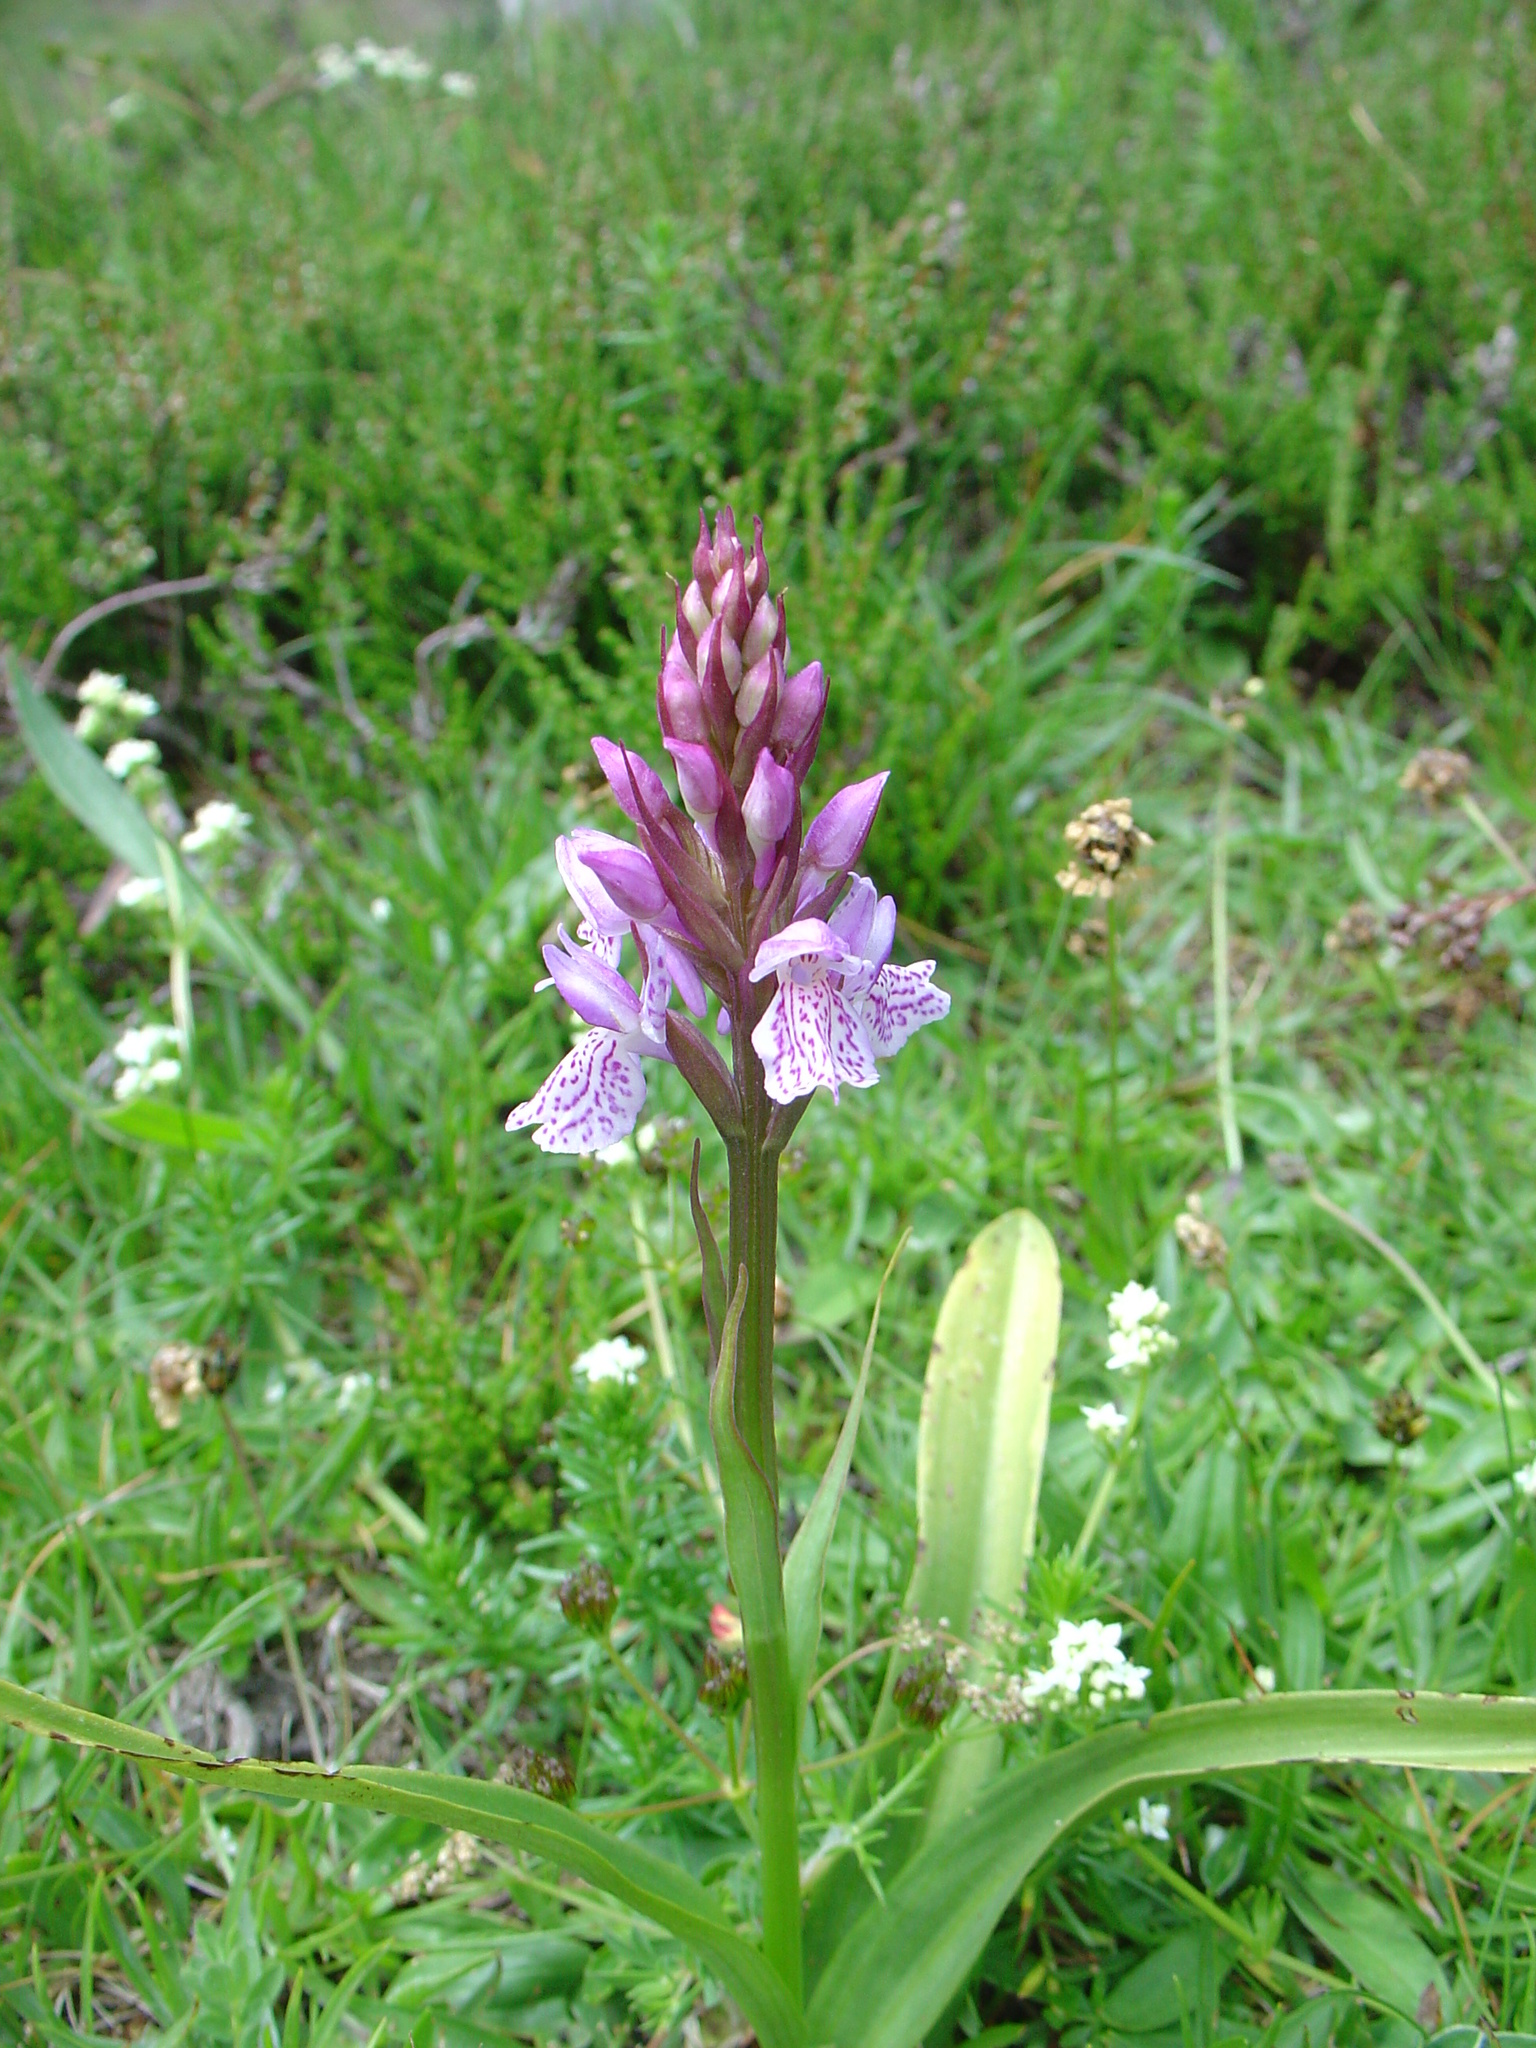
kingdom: Plantae
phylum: Tracheophyta
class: Liliopsida
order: Asparagales
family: Orchidaceae
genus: Dactylorhiza
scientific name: Dactylorhiza maculata
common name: Heath spotted-orchid
